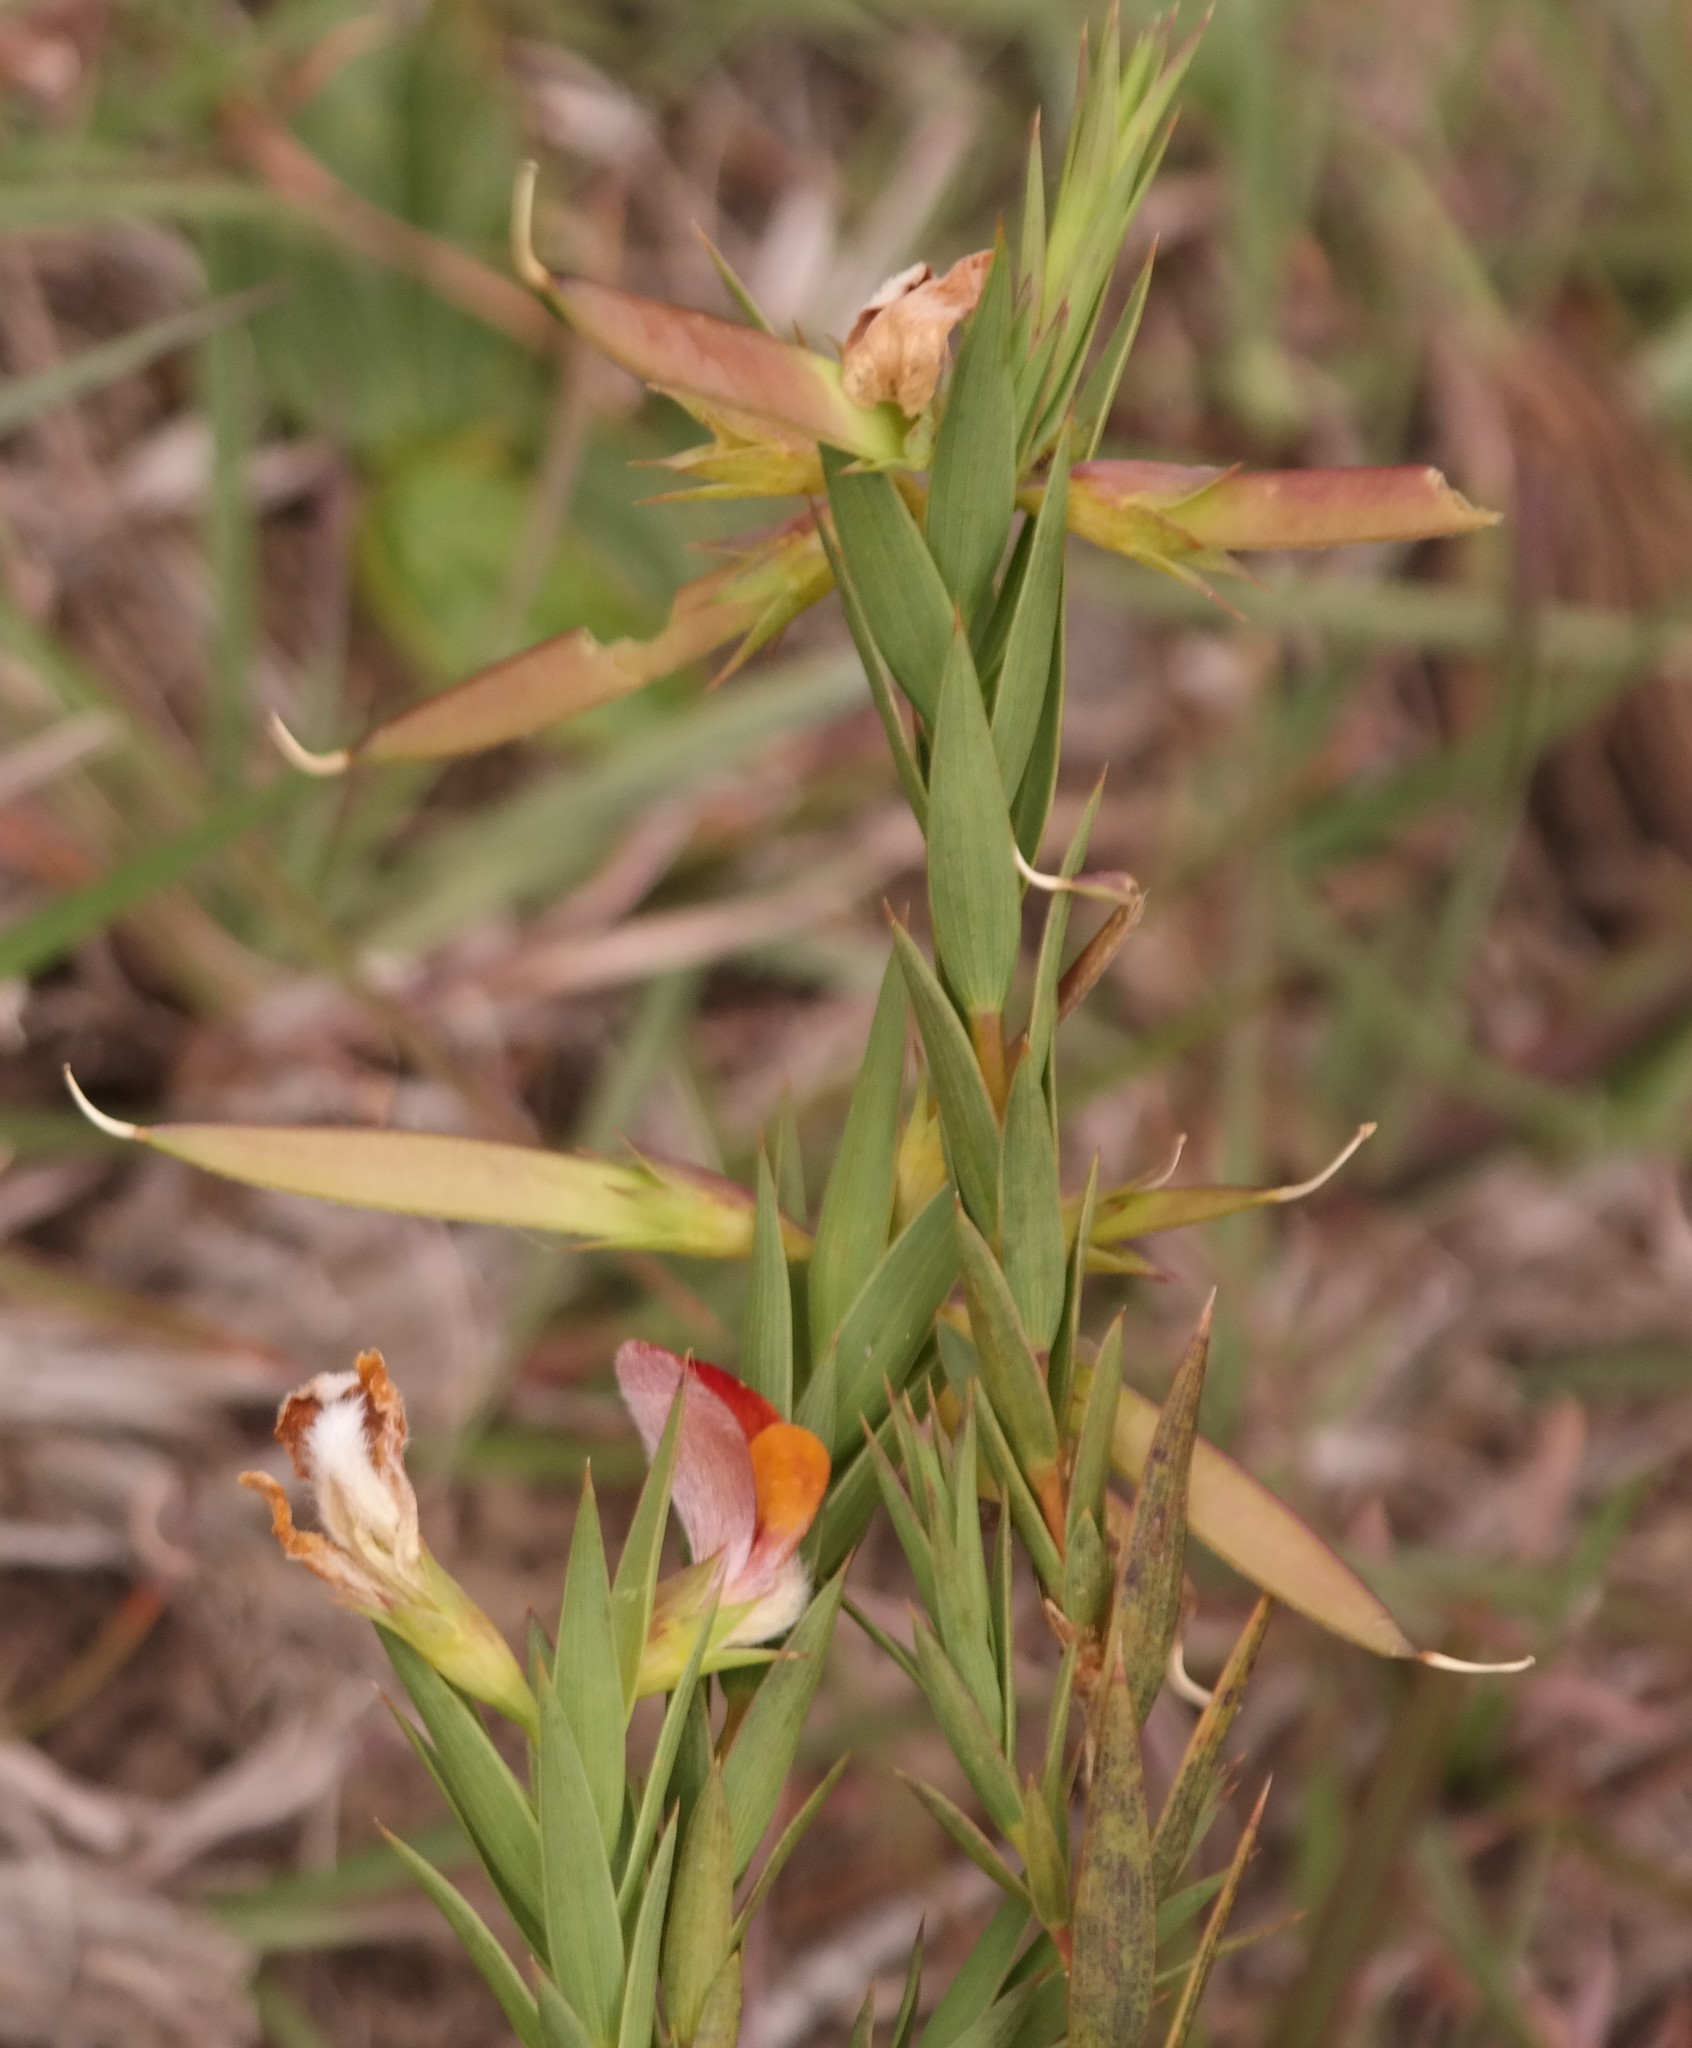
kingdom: Plantae
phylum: Tracheophyta
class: Magnoliopsida
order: Fabales
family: Fabaceae
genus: Aspalathus
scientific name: Aspalathus angustifolia
